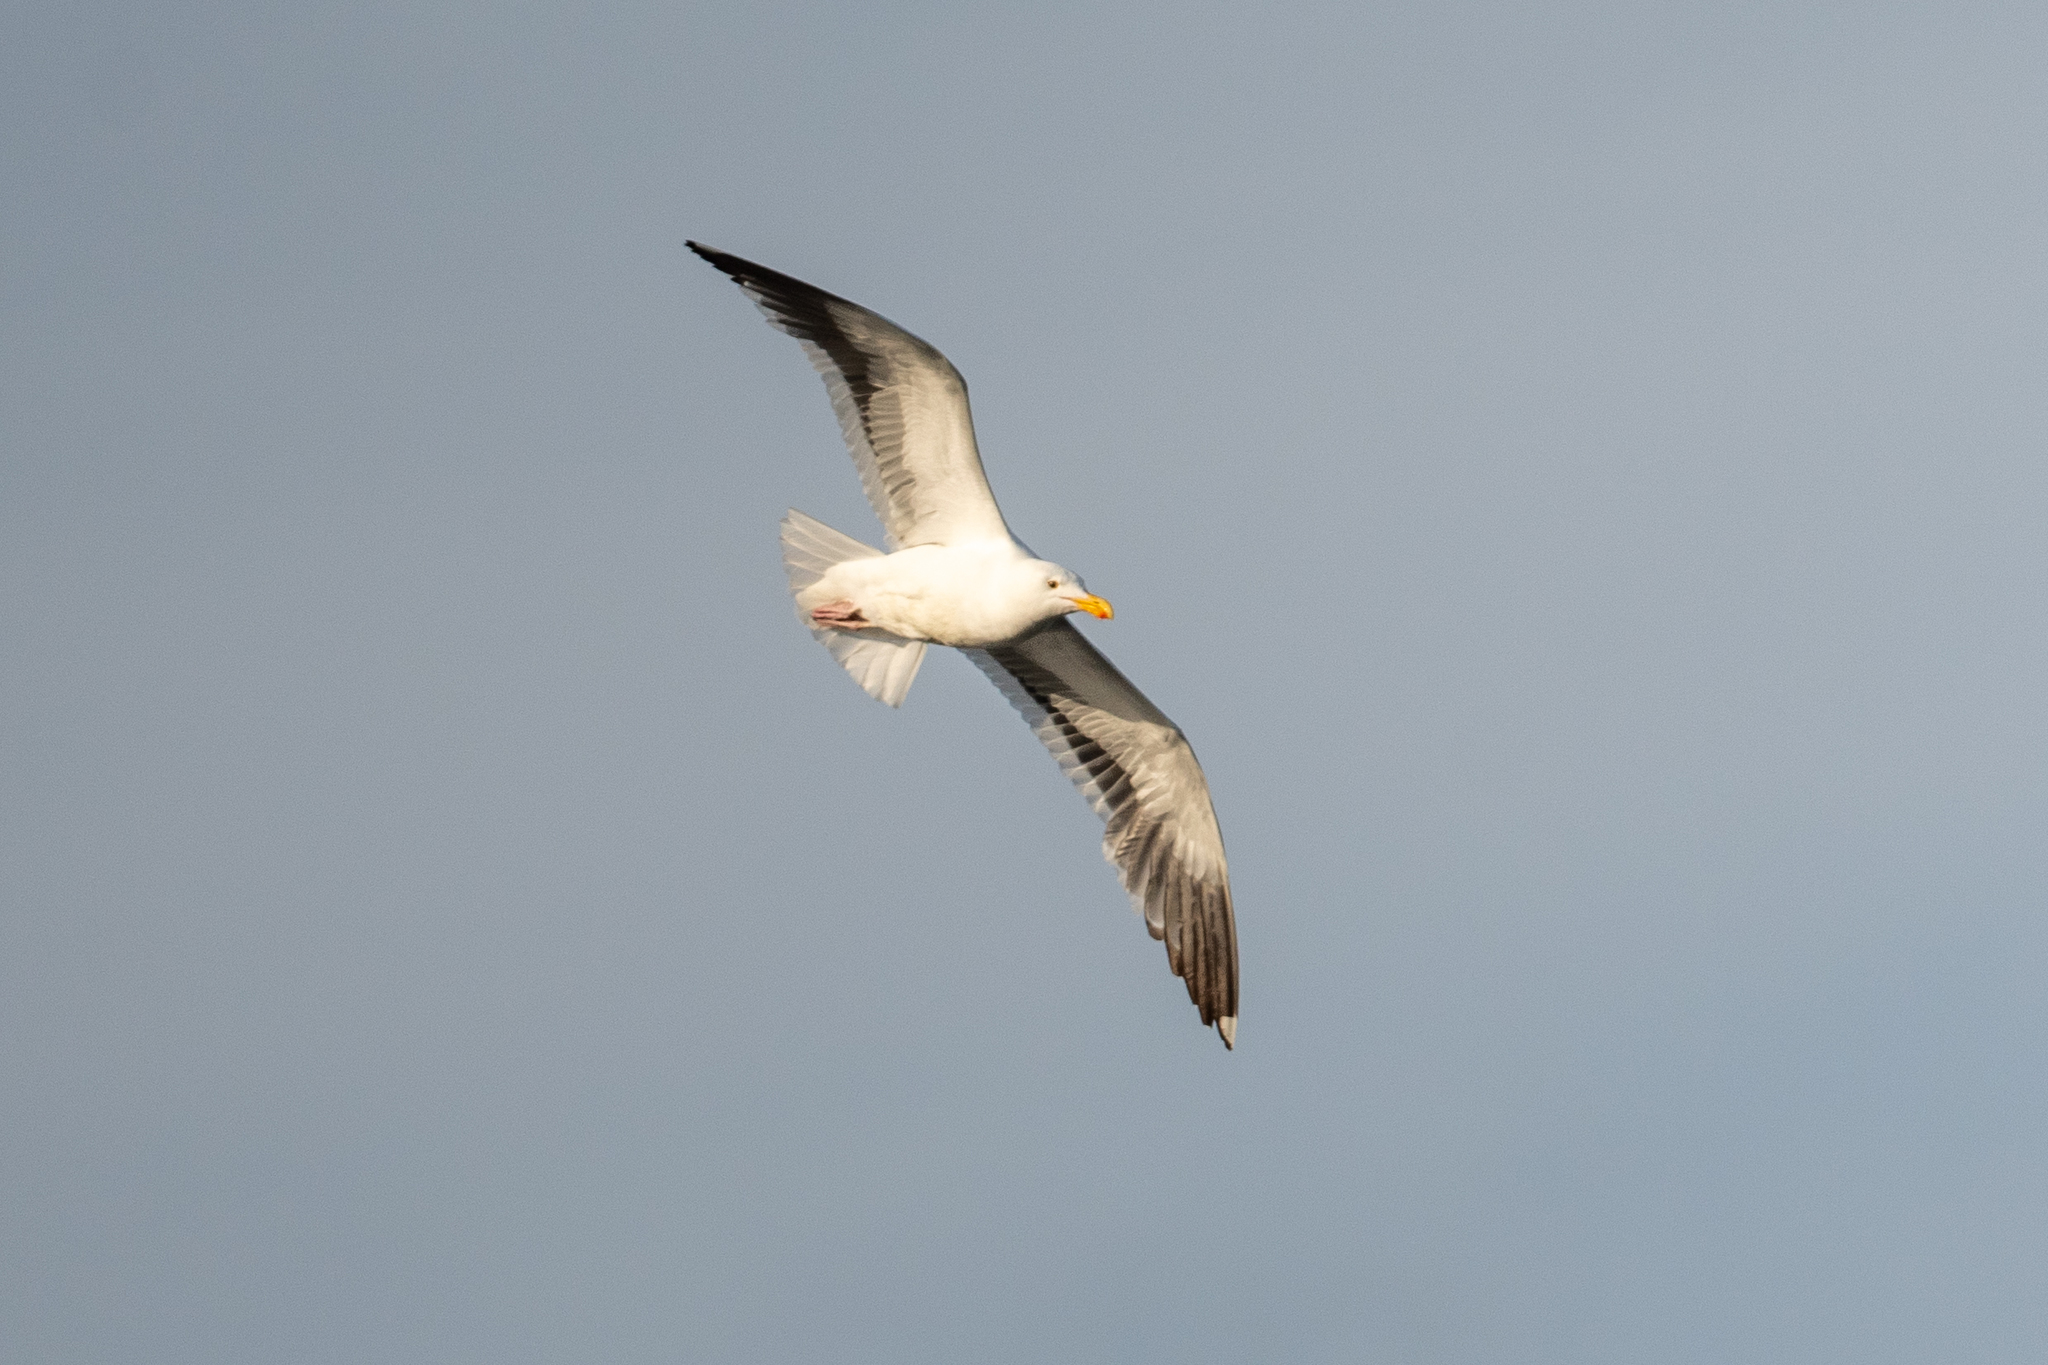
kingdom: Animalia
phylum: Chordata
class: Aves
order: Charadriiformes
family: Laridae
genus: Larus
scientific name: Larus occidentalis
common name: Western gull
